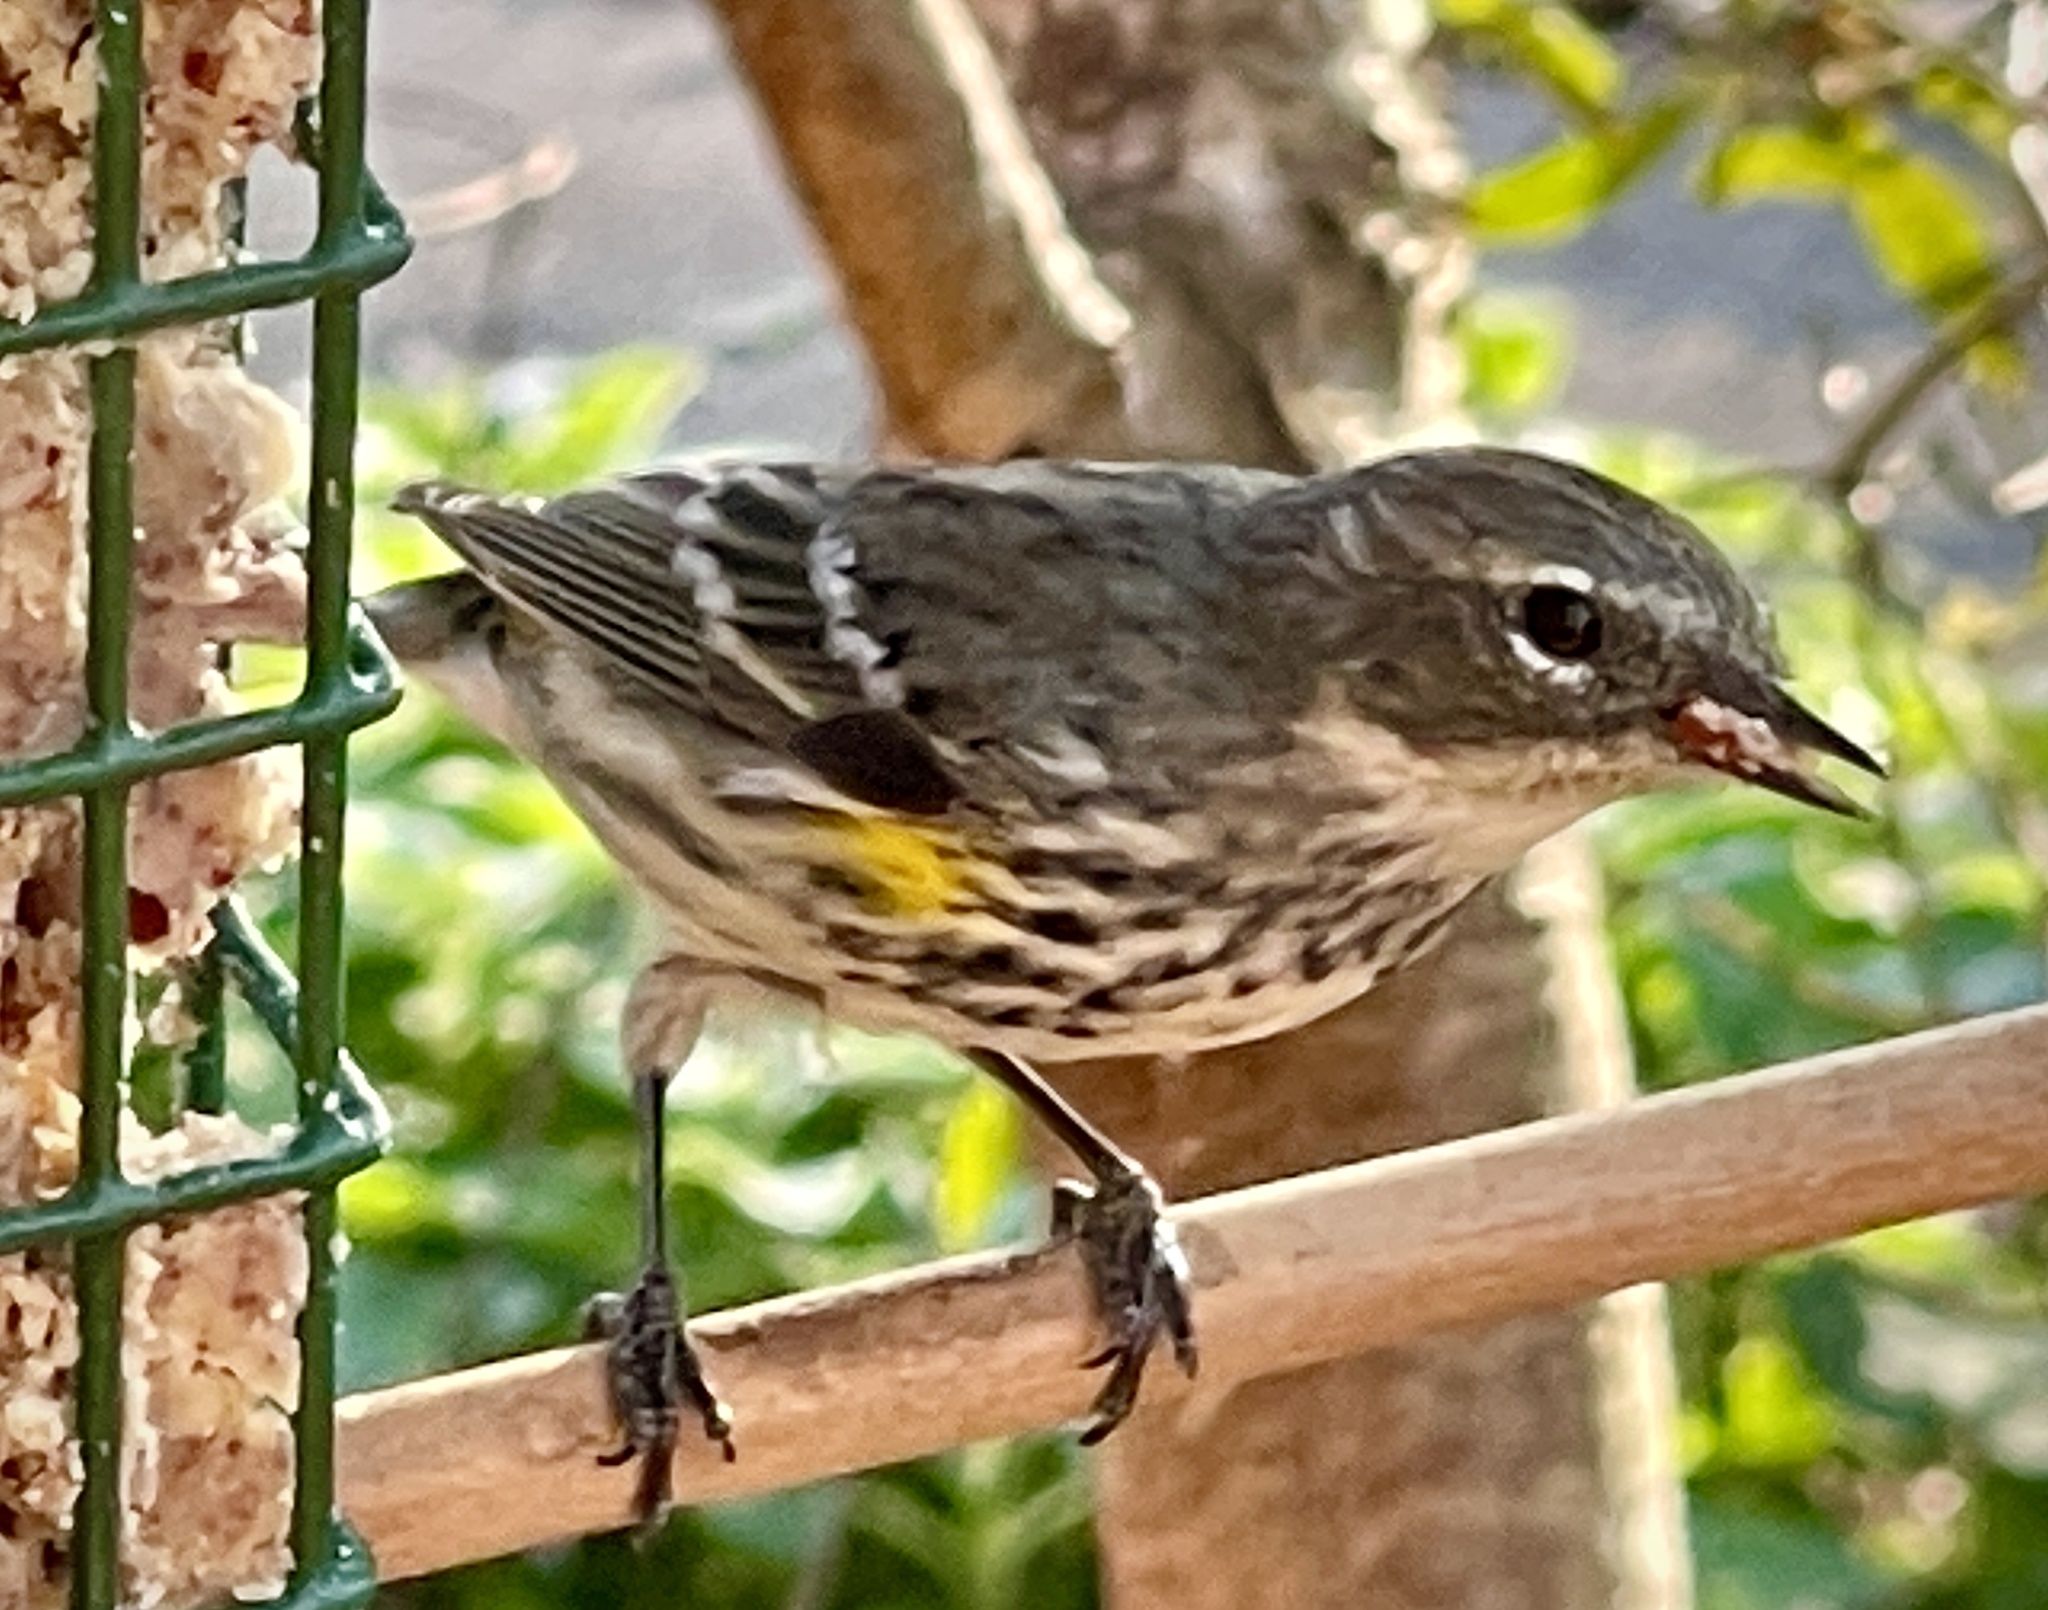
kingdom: Animalia
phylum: Chordata
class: Aves
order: Passeriformes
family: Parulidae
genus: Setophaga
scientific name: Setophaga coronata
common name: Myrtle warbler
